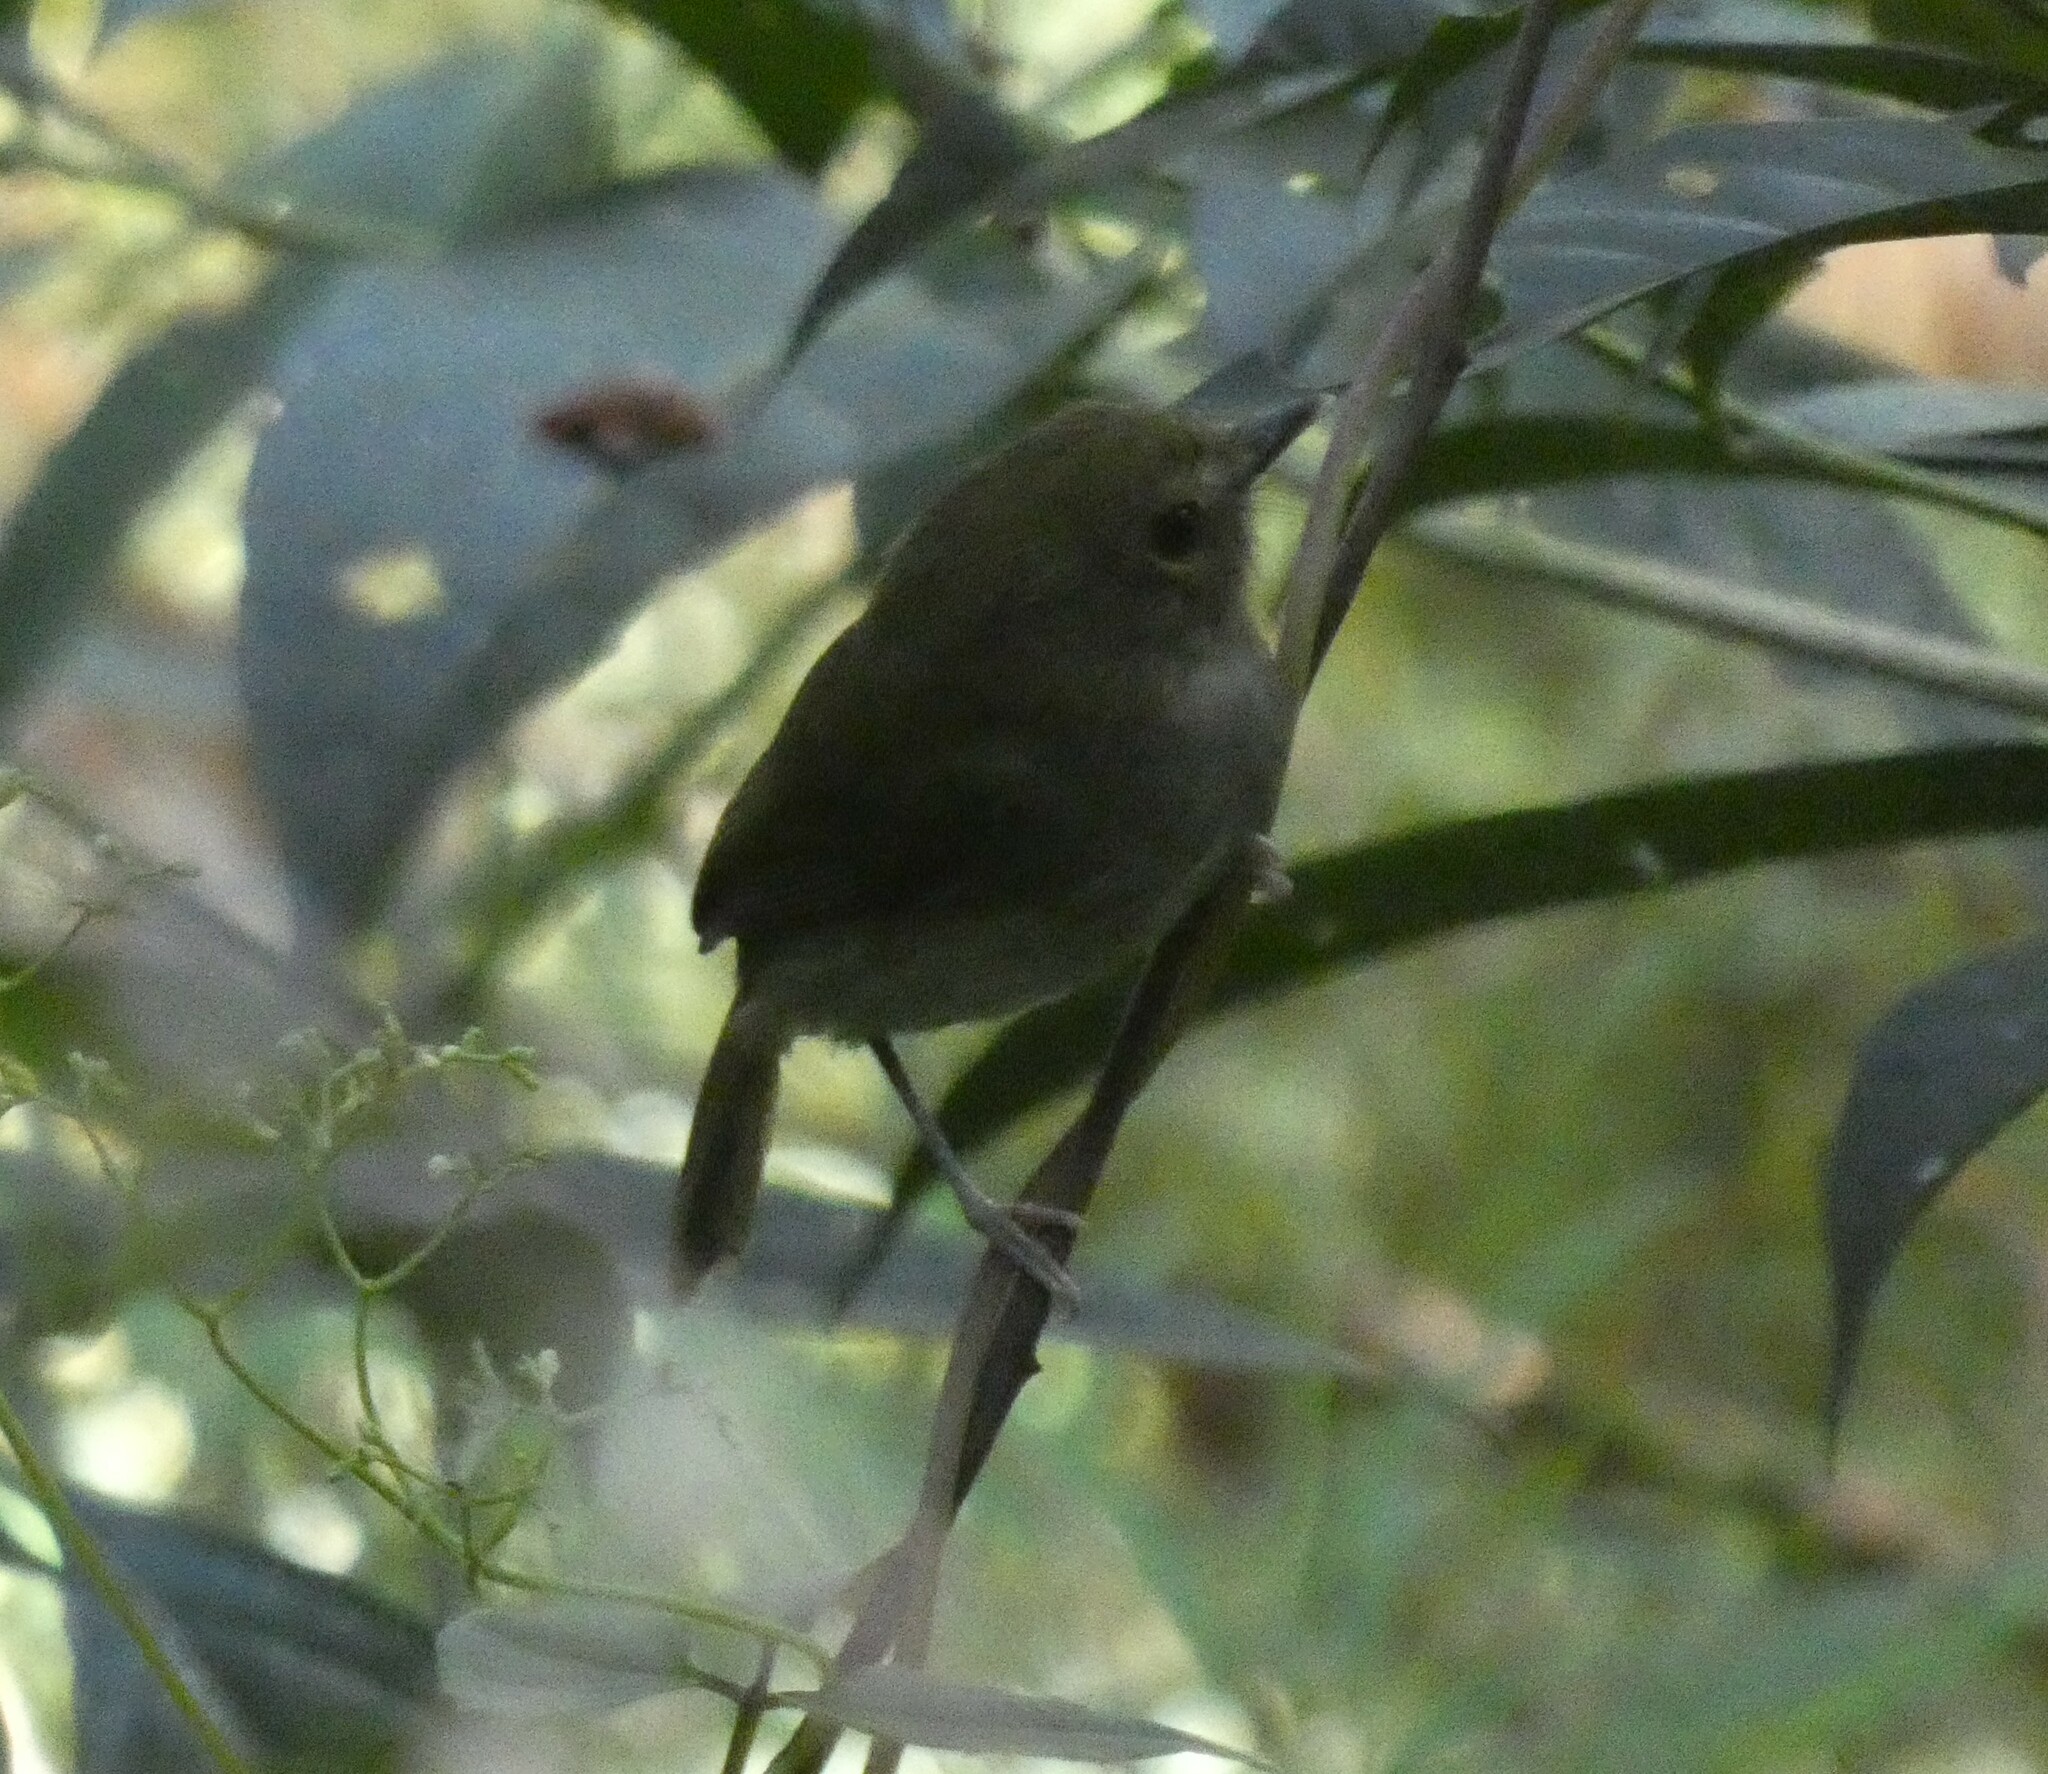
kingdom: Animalia
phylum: Chordata
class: Aves
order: Passeriformes
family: Tyrannidae
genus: Hemitriccus
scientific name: Hemitriccus diops
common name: Drab-breasted bamboo tyrant
